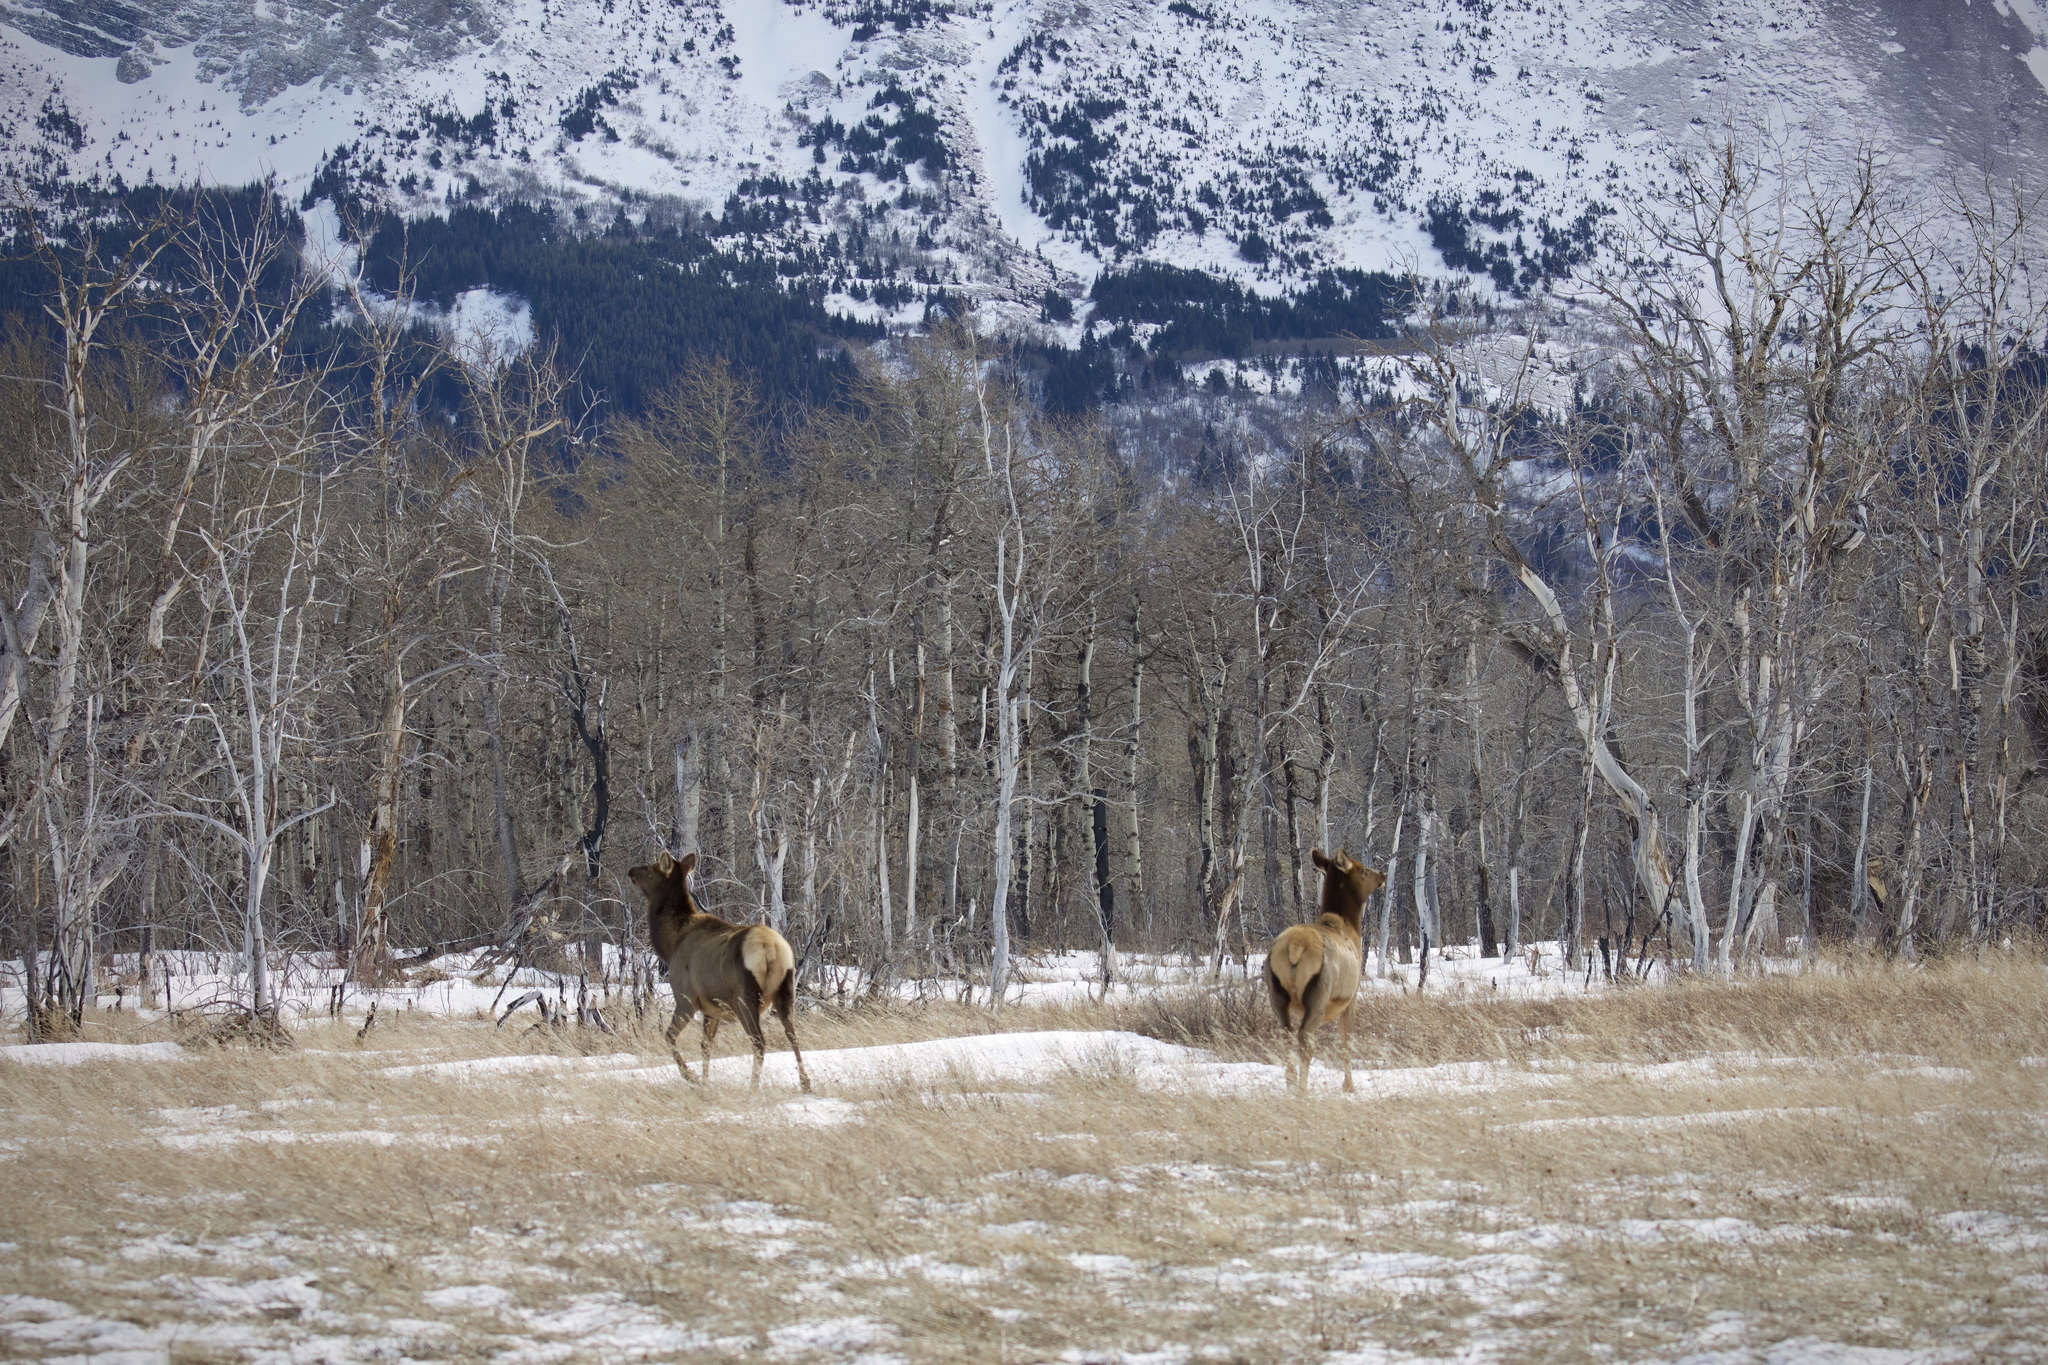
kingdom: Animalia
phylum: Chordata
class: Mammalia
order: Artiodactyla
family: Cervidae
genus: Cervus
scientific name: Cervus elaphus
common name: Red deer
